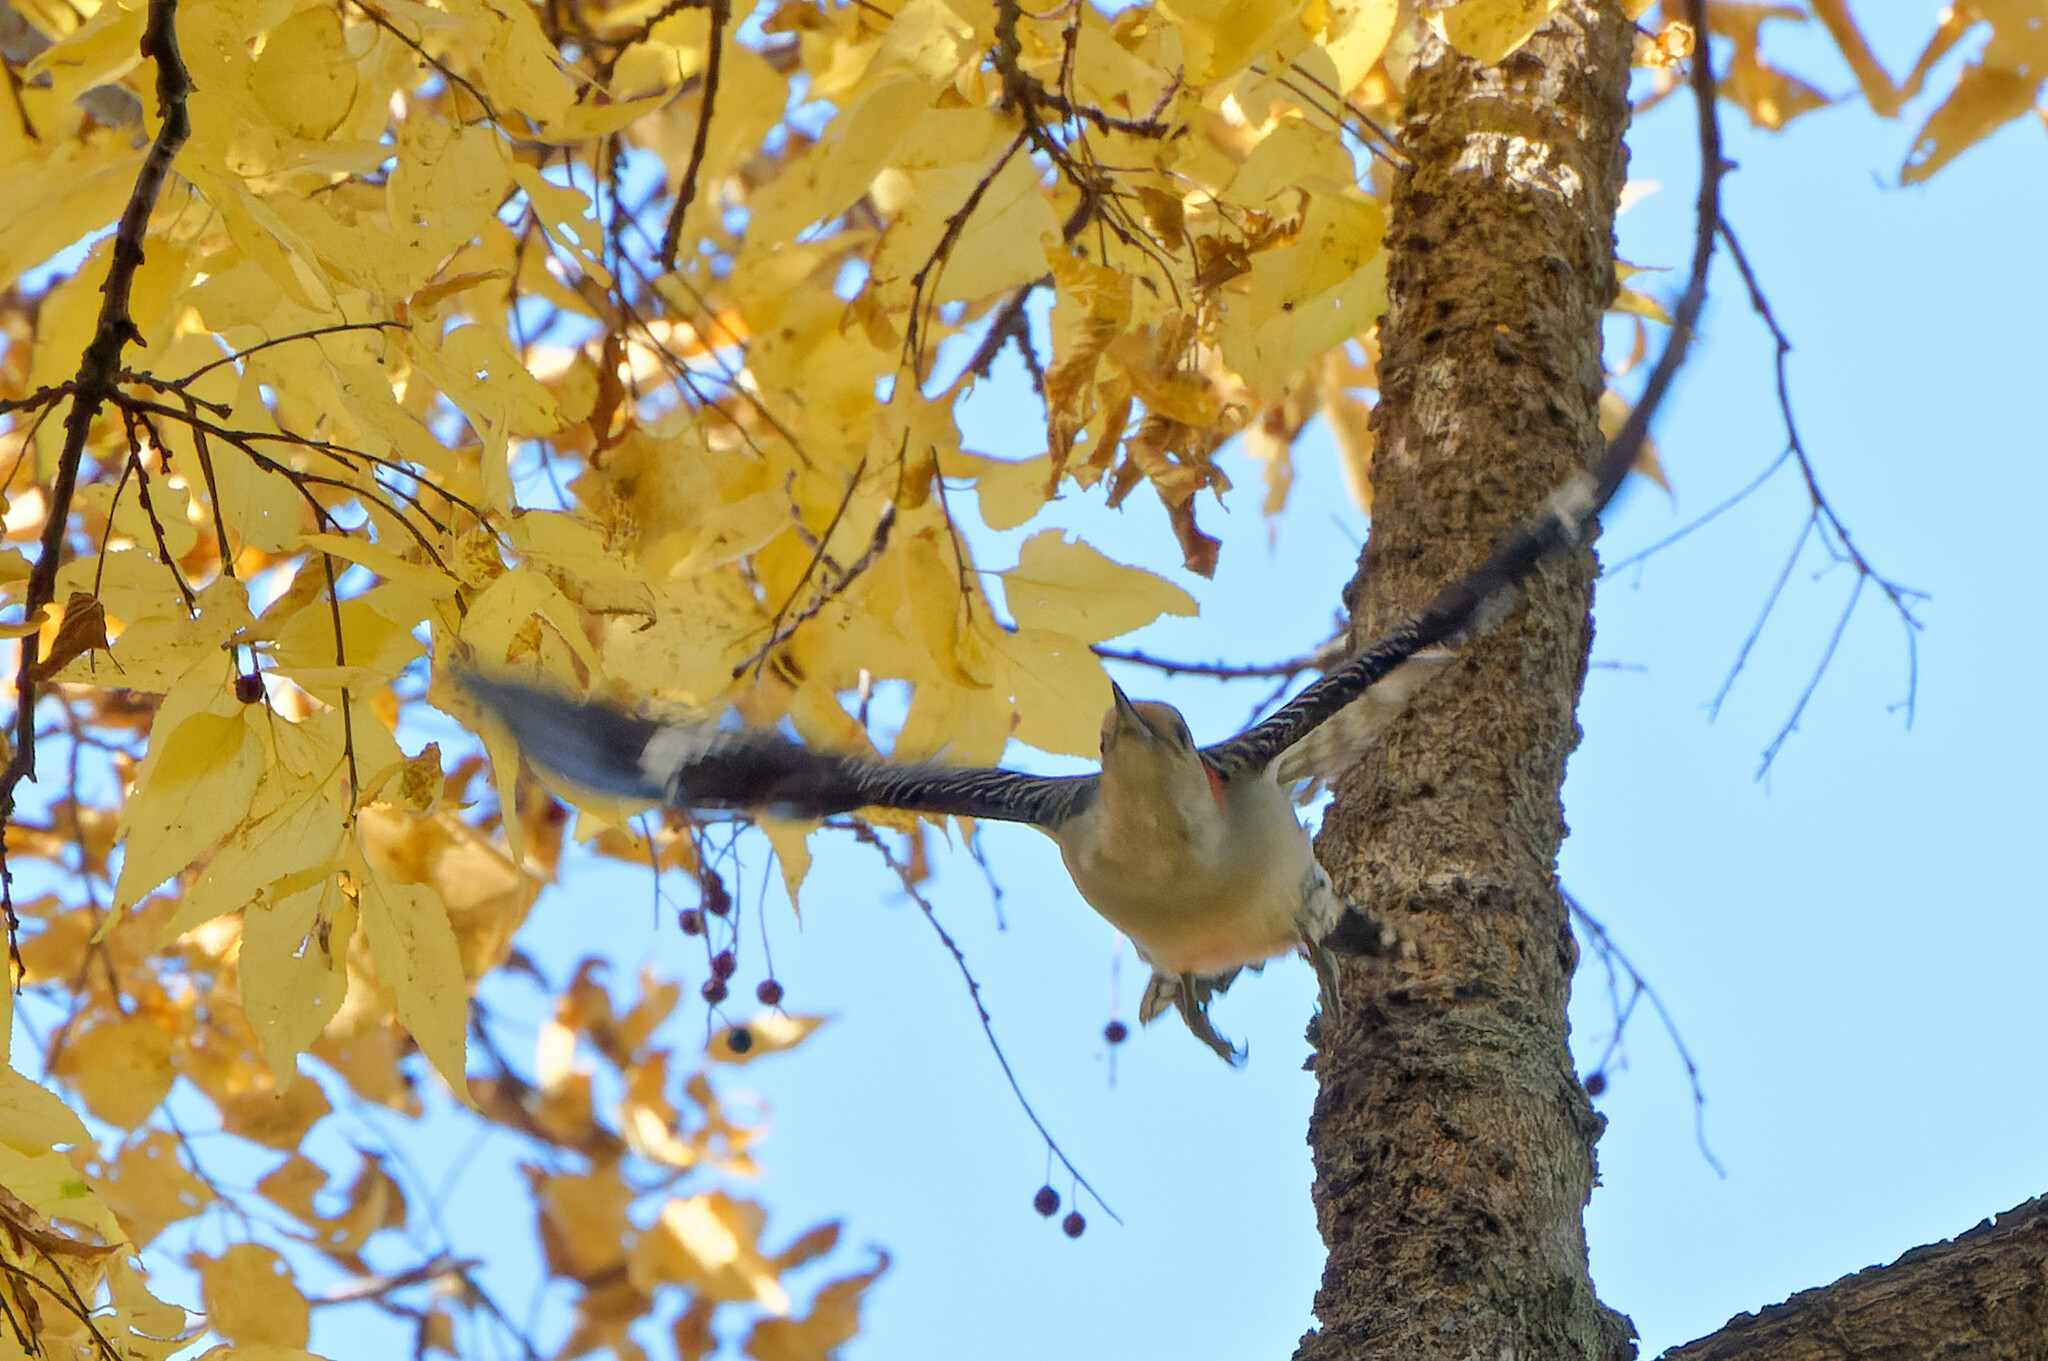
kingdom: Animalia
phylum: Chordata
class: Aves
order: Piciformes
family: Picidae
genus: Melanerpes
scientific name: Melanerpes carolinus
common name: Red-bellied woodpecker
